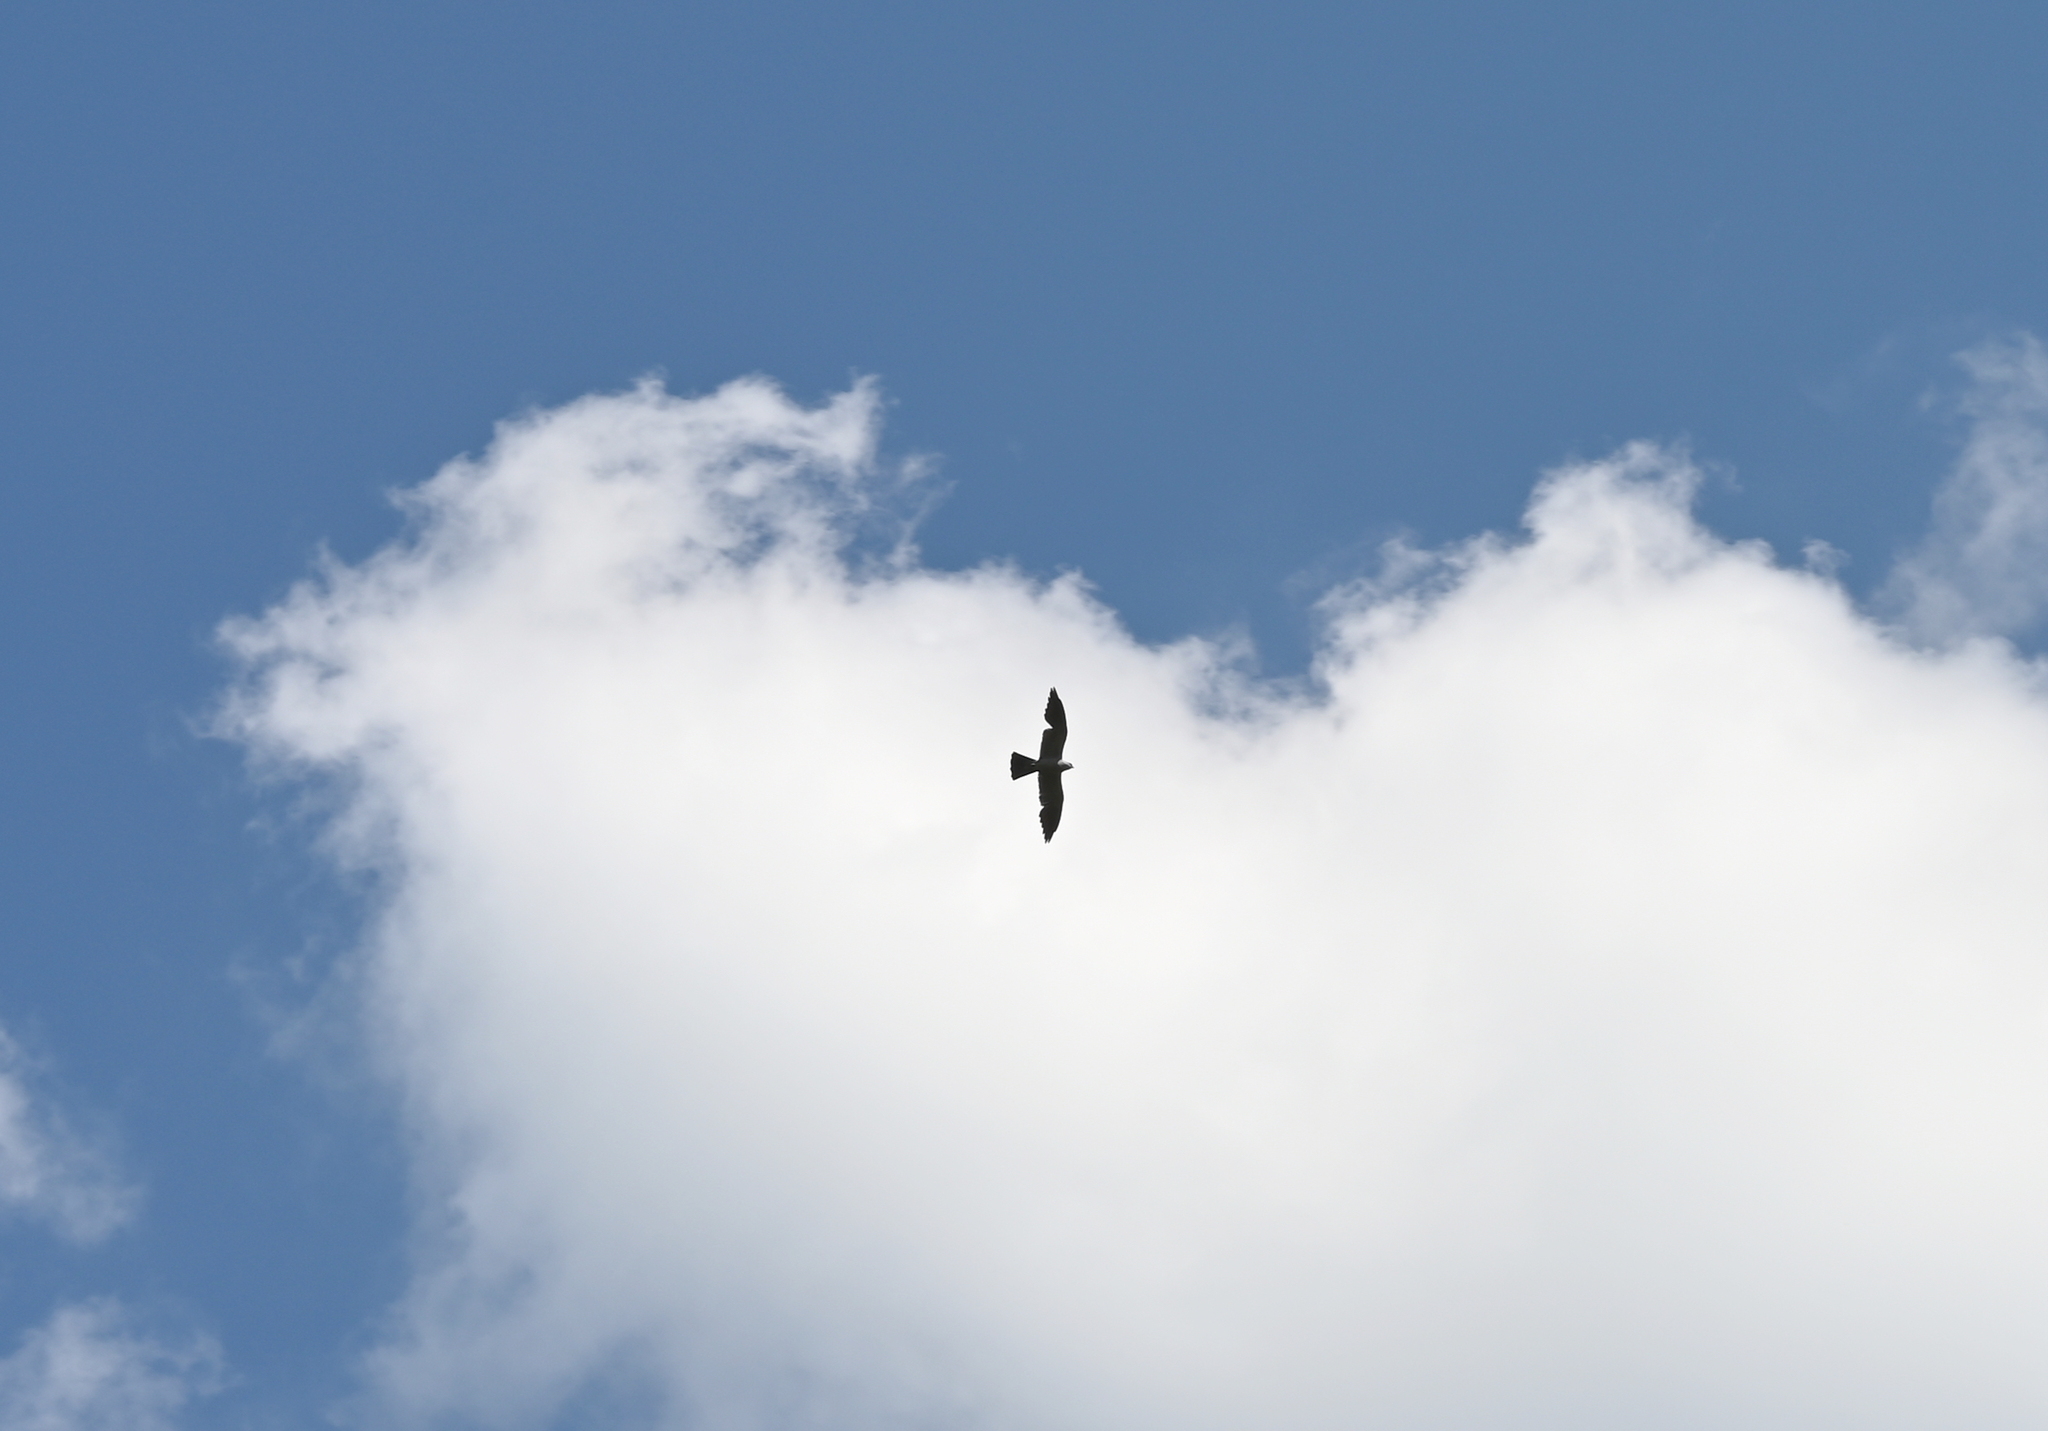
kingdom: Animalia
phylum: Chordata
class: Aves
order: Accipitriformes
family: Accipitridae
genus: Ictinia
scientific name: Ictinia mississippiensis
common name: Mississippi kite
